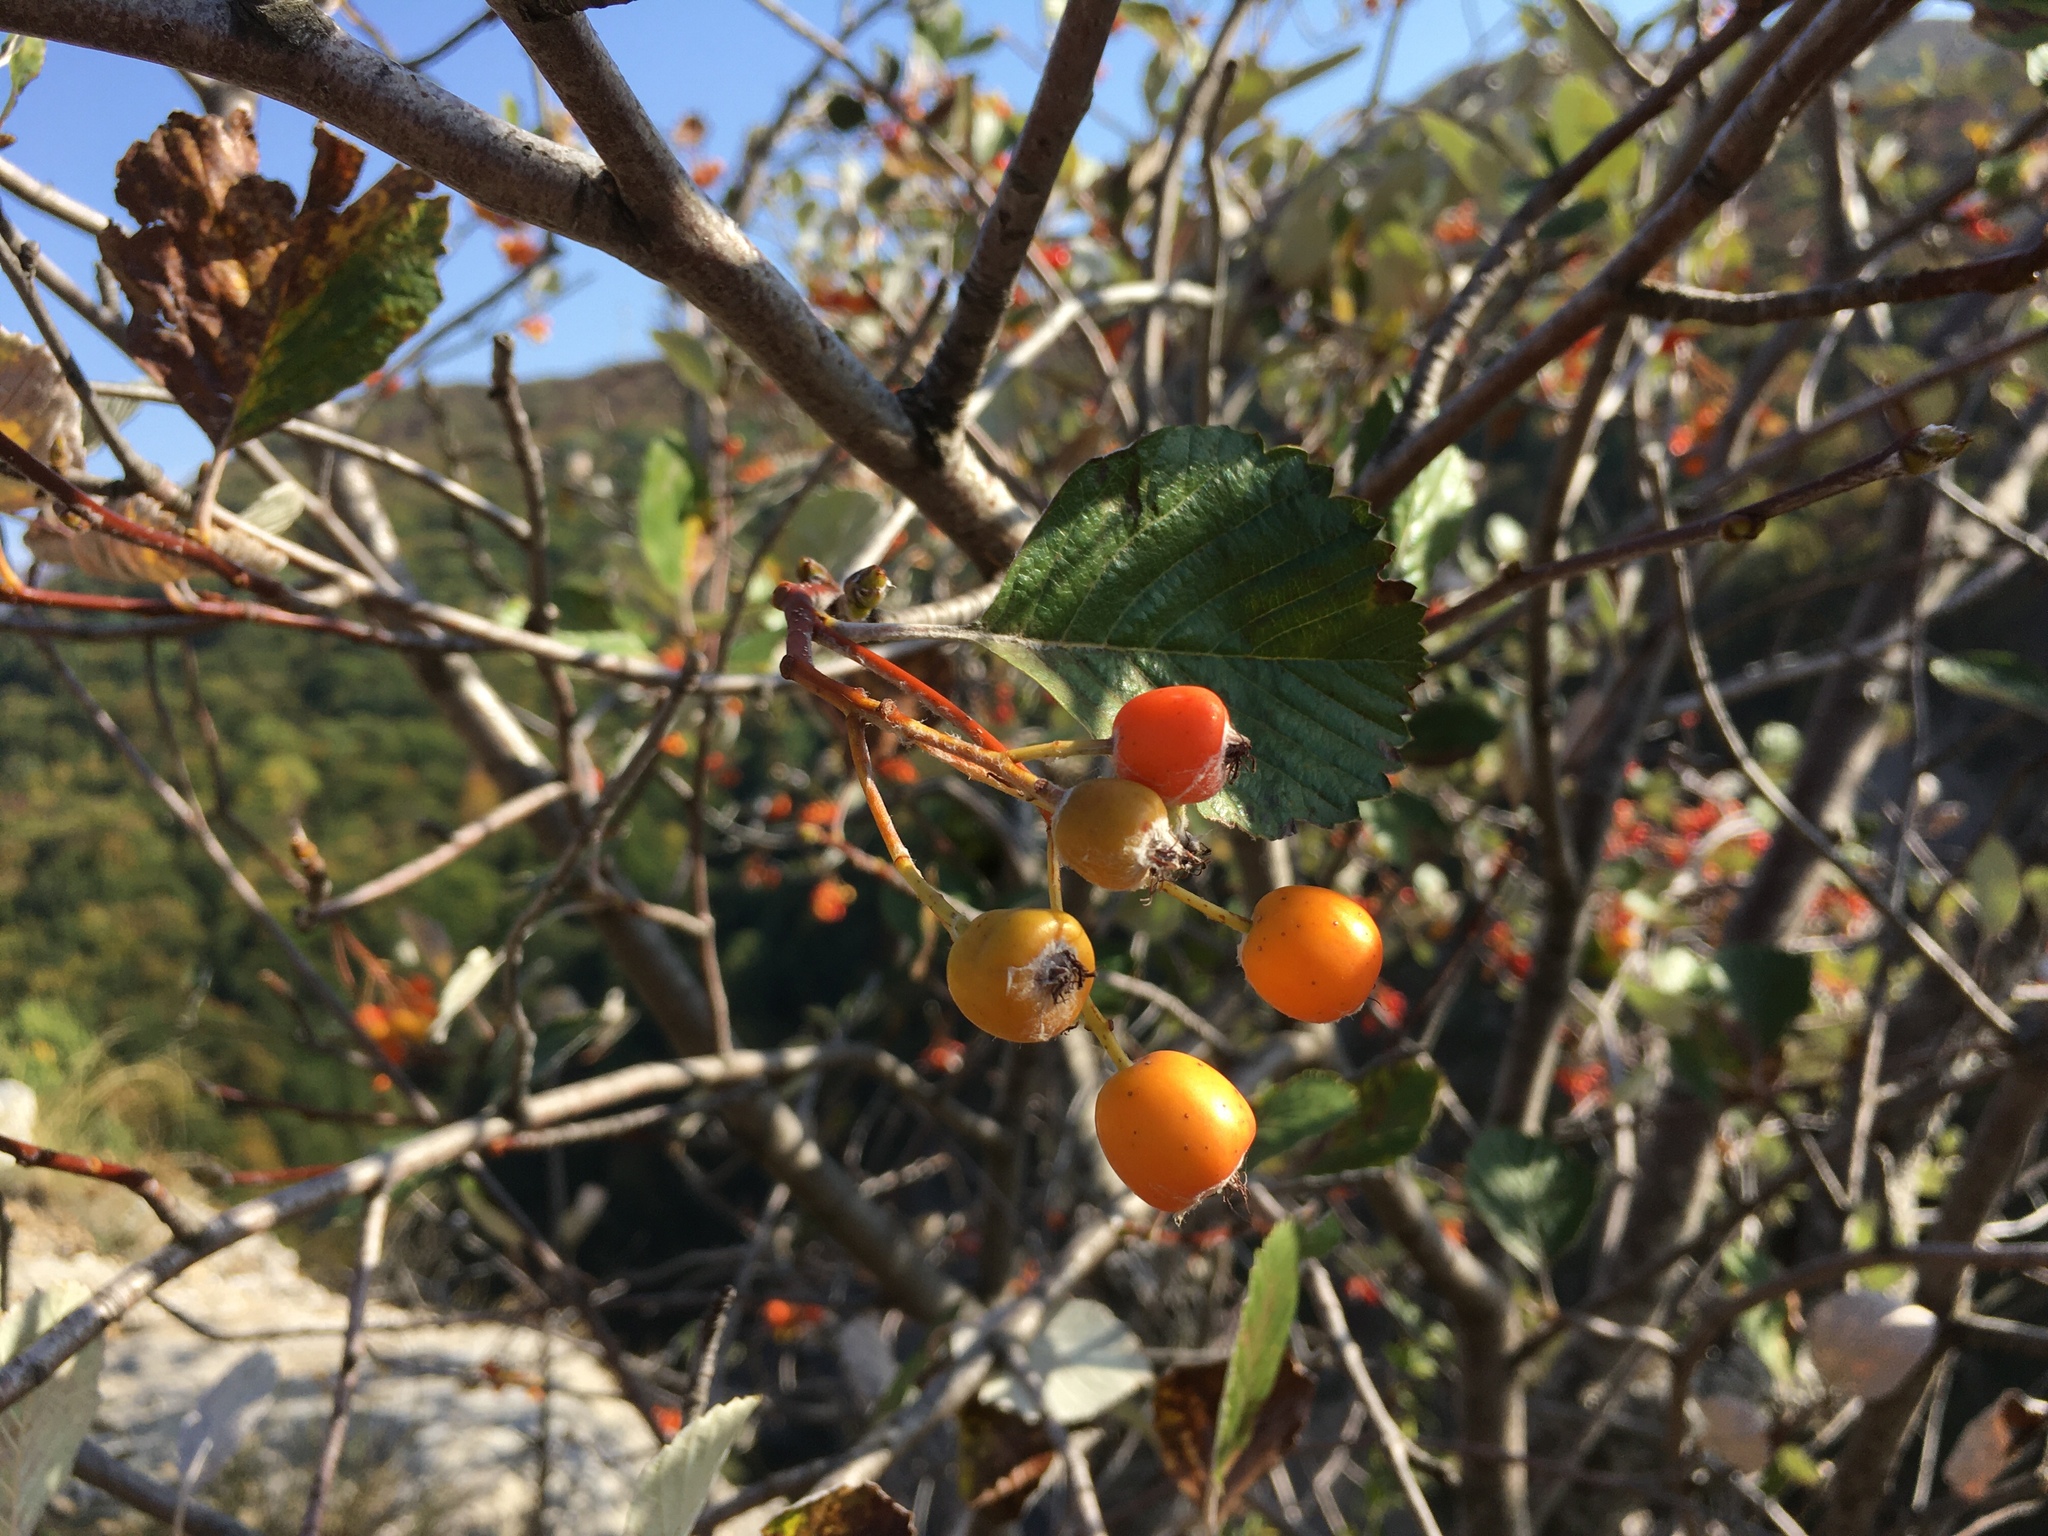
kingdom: Plantae
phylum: Tracheophyta
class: Magnoliopsida
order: Rosales
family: Rosaceae
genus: Aria
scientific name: Aria graeca
